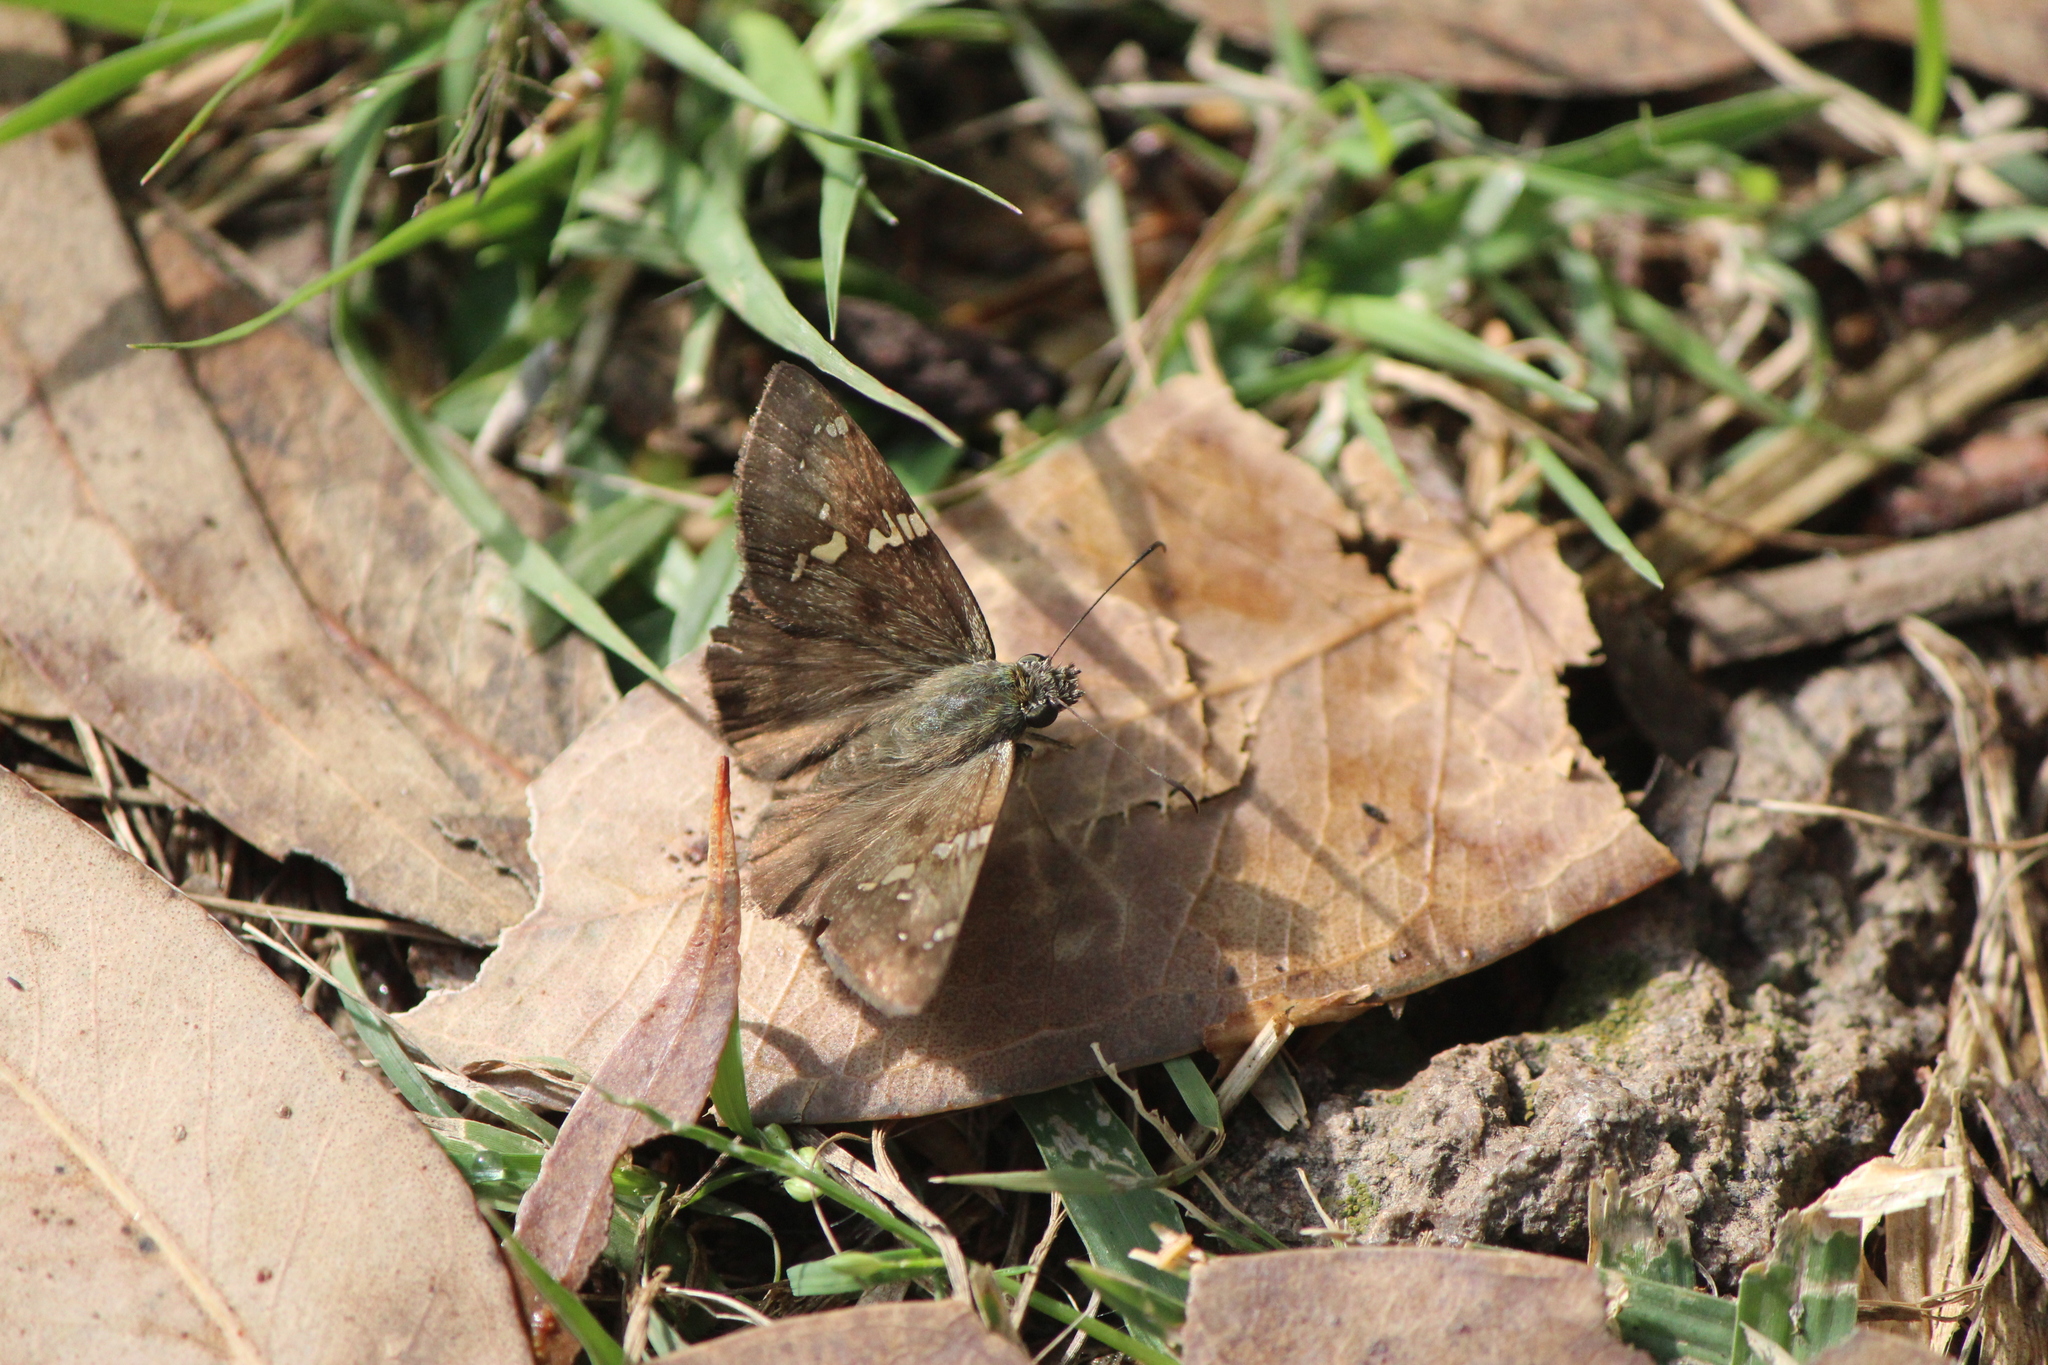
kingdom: Animalia
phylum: Arthropoda
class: Insecta
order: Lepidoptera
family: Hesperiidae
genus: Autochton
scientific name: Autochton potrillo
